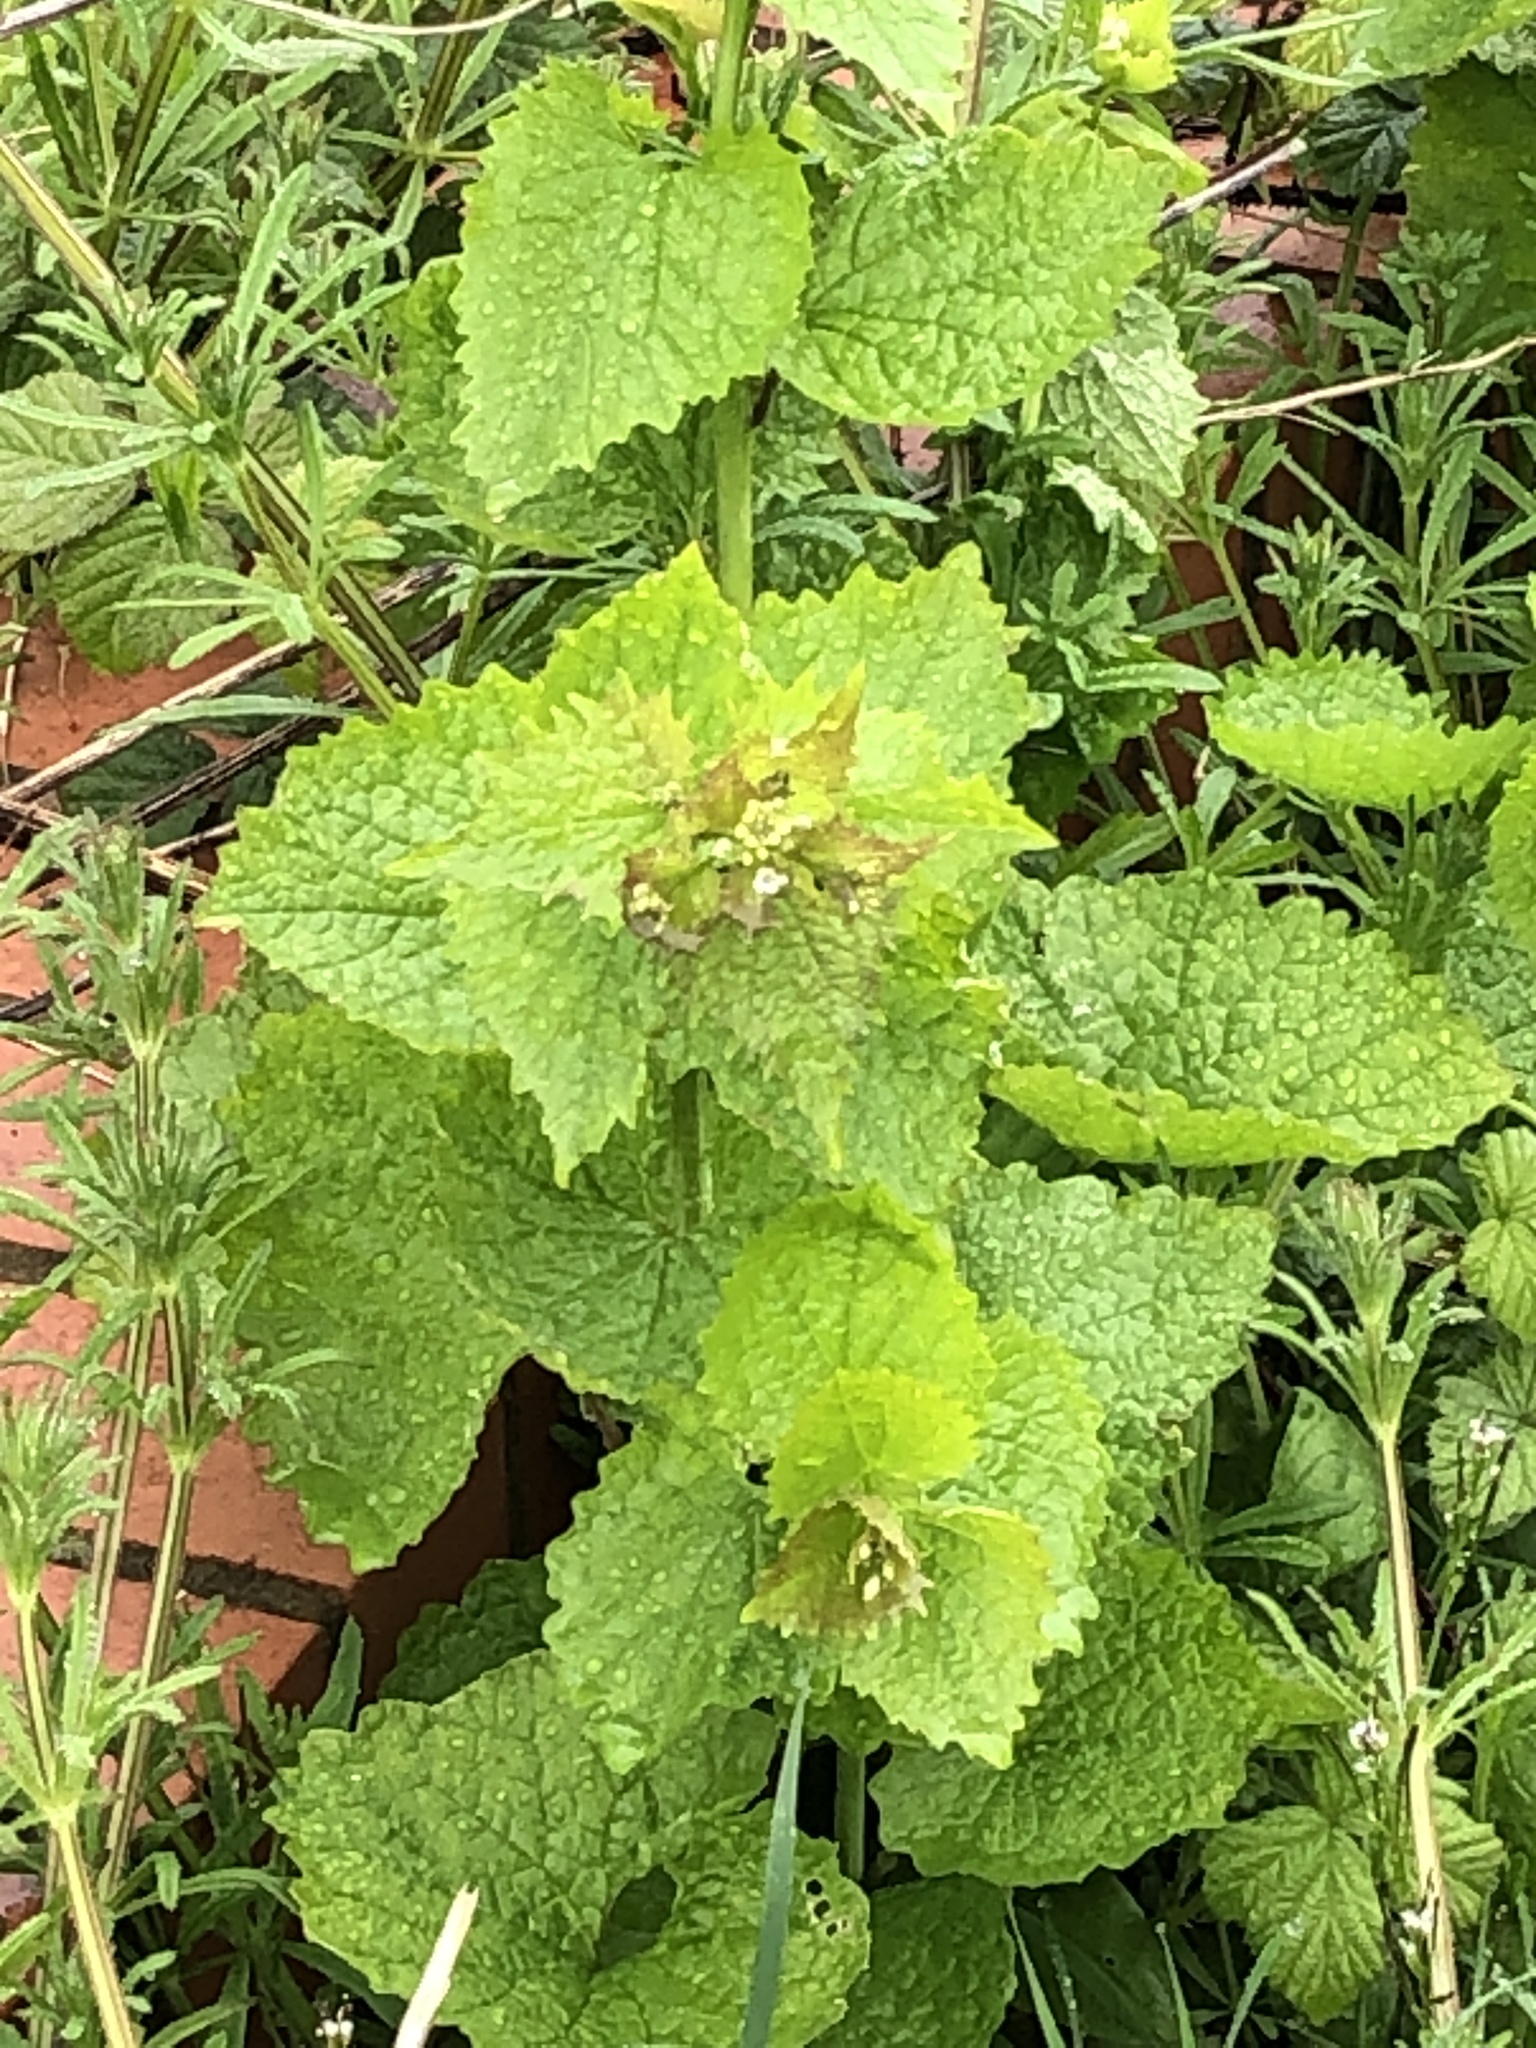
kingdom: Plantae
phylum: Tracheophyta
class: Magnoliopsida
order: Brassicales
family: Brassicaceae
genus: Alliaria
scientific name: Alliaria petiolata
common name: Garlic mustard
